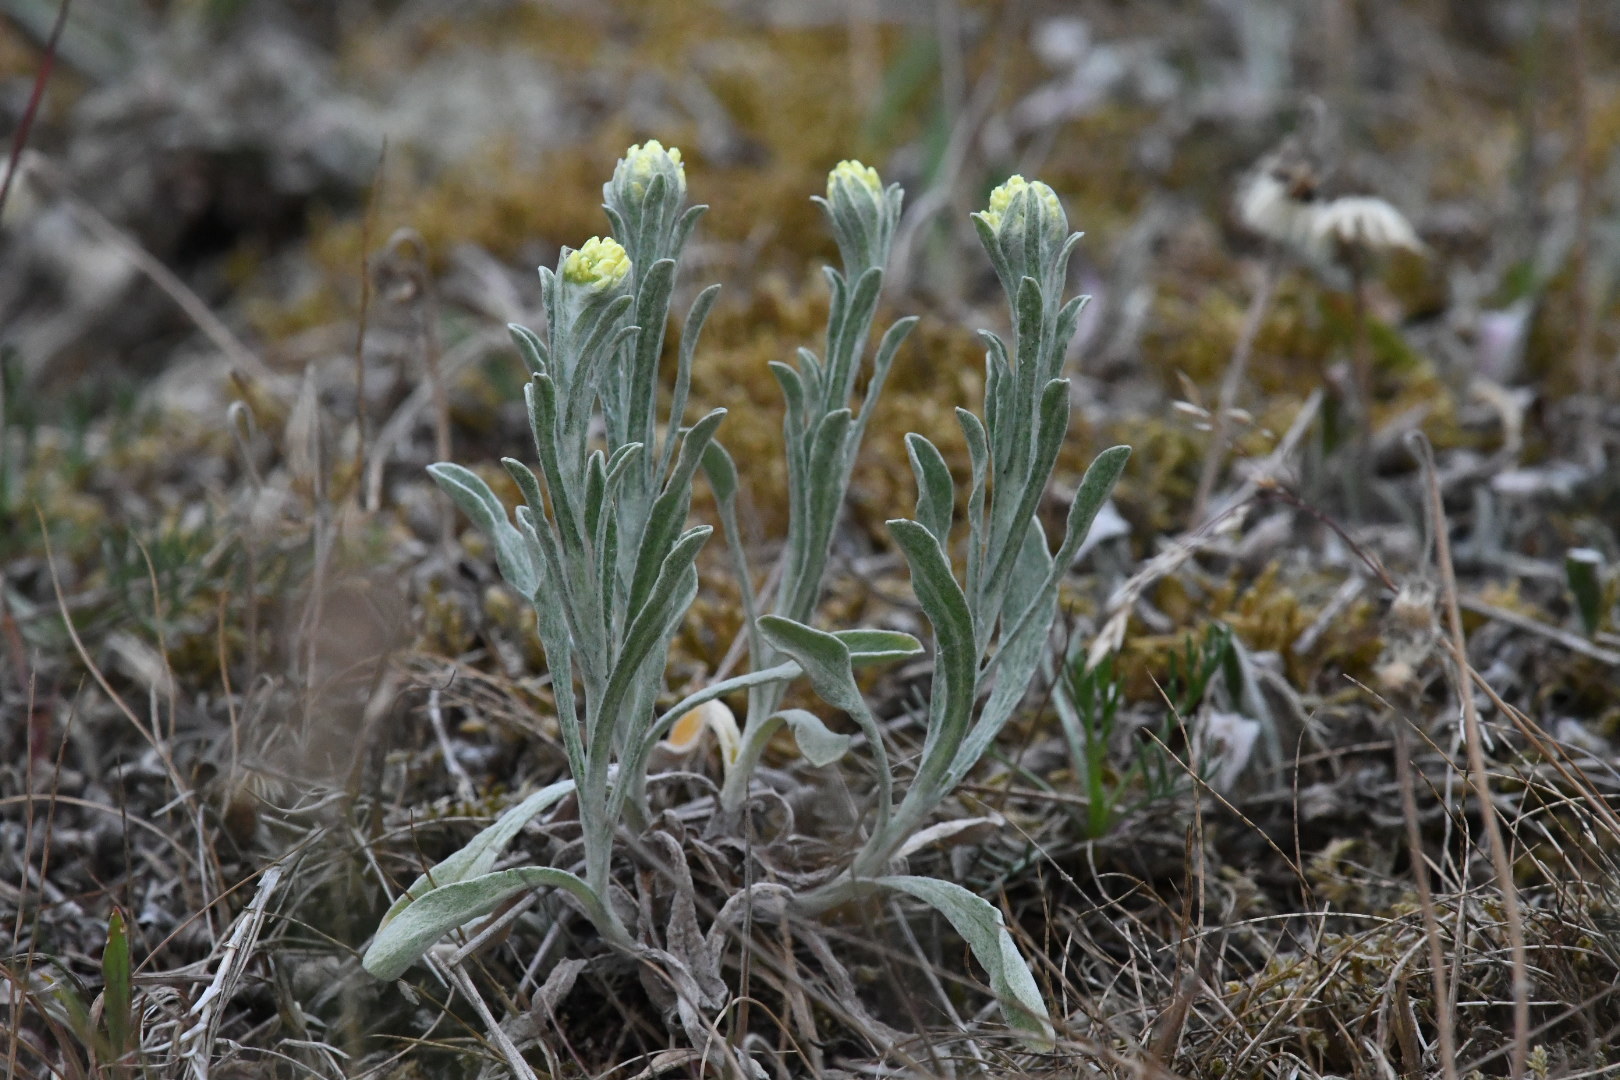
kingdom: Plantae
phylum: Tracheophyta
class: Magnoliopsida
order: Asterales
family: Asteraceae
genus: Helichrysum
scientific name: Helichrysum arenarium
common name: Strawflower
